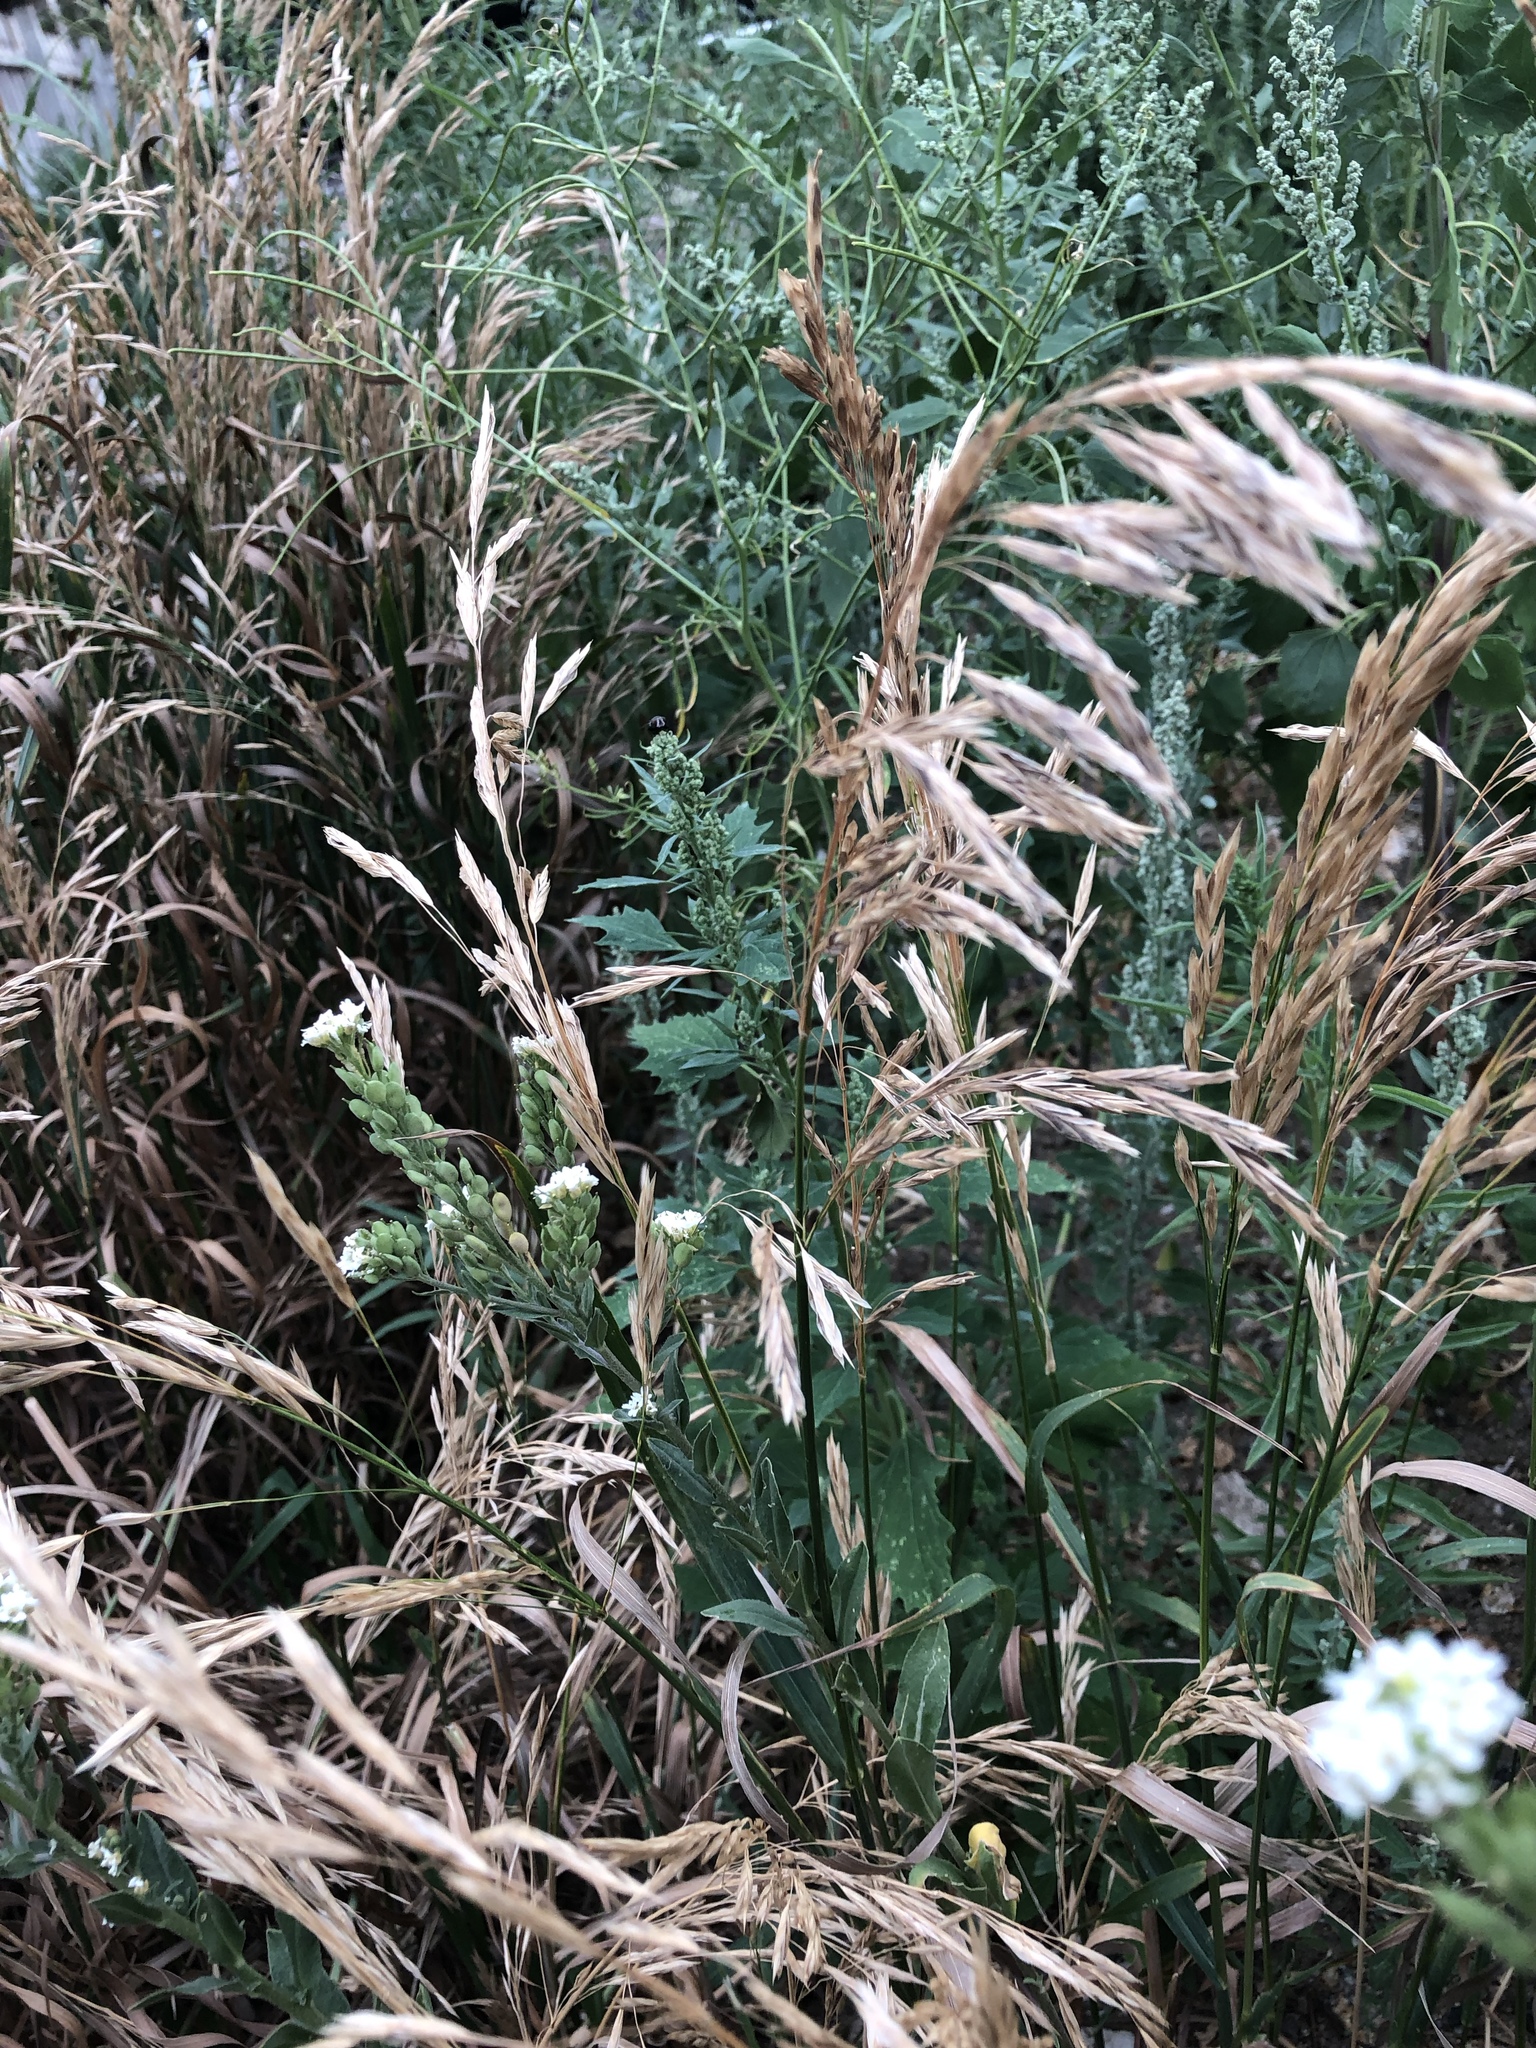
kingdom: Plantae
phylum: Tracheophyta
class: Liliopsida
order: Poales
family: Poaceae
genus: Bromus
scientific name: Bromus inermis
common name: Smooth brome
